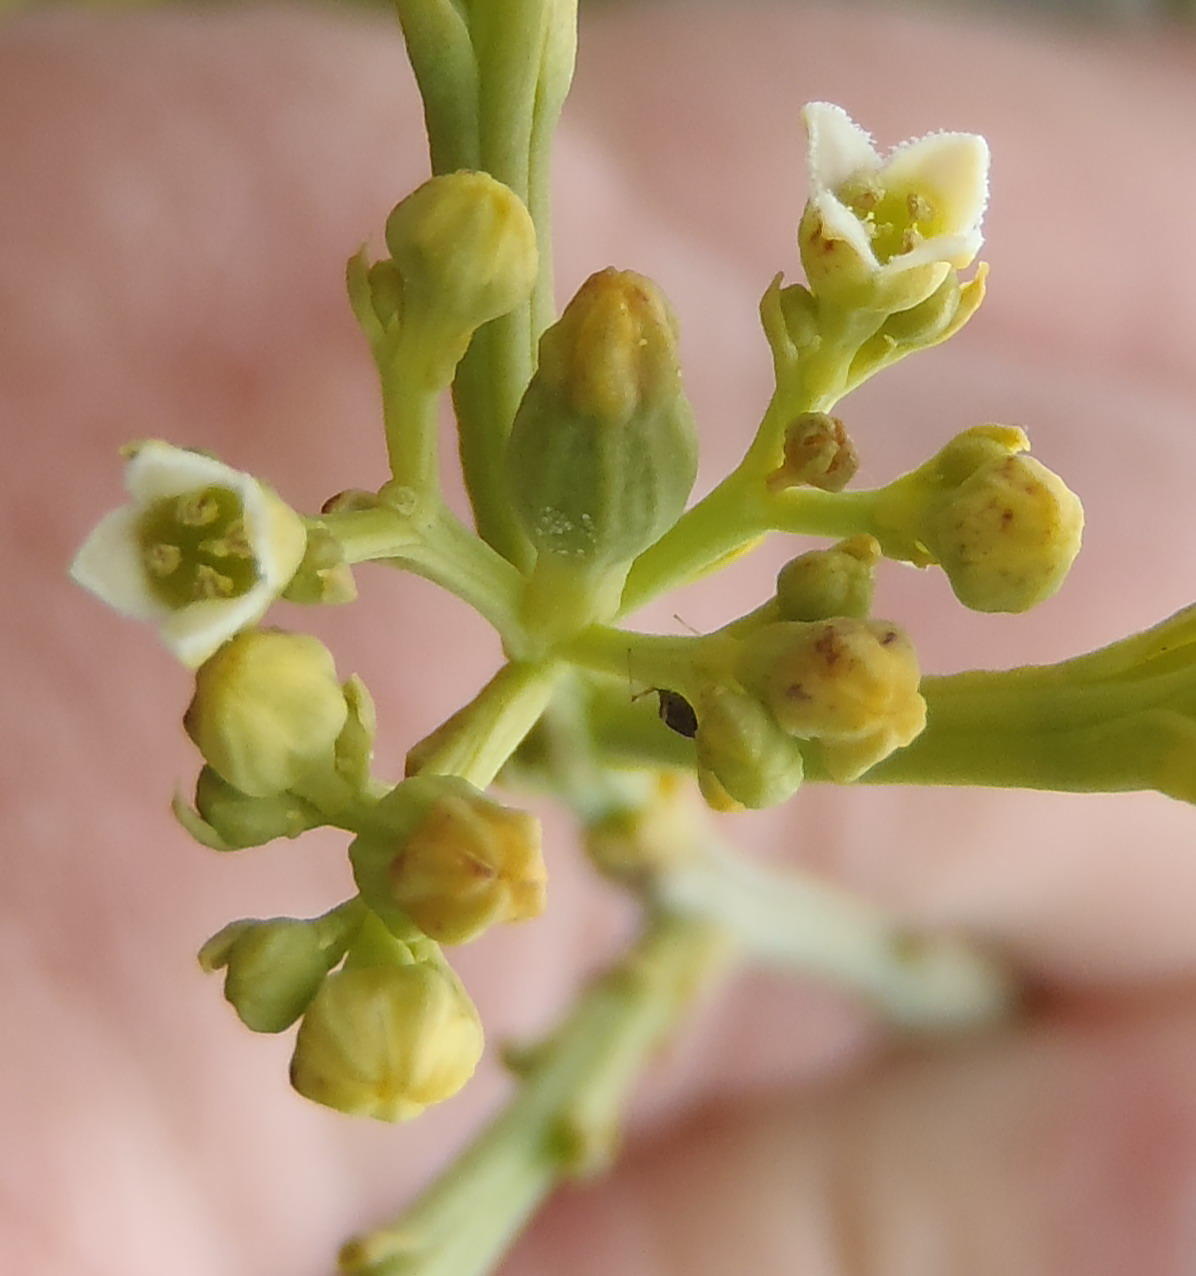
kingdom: Plantae
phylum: Tracheophyta
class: Magnoliopsida
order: Santalales
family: Thesiaceae
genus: Thesium
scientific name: Thesium strictum
